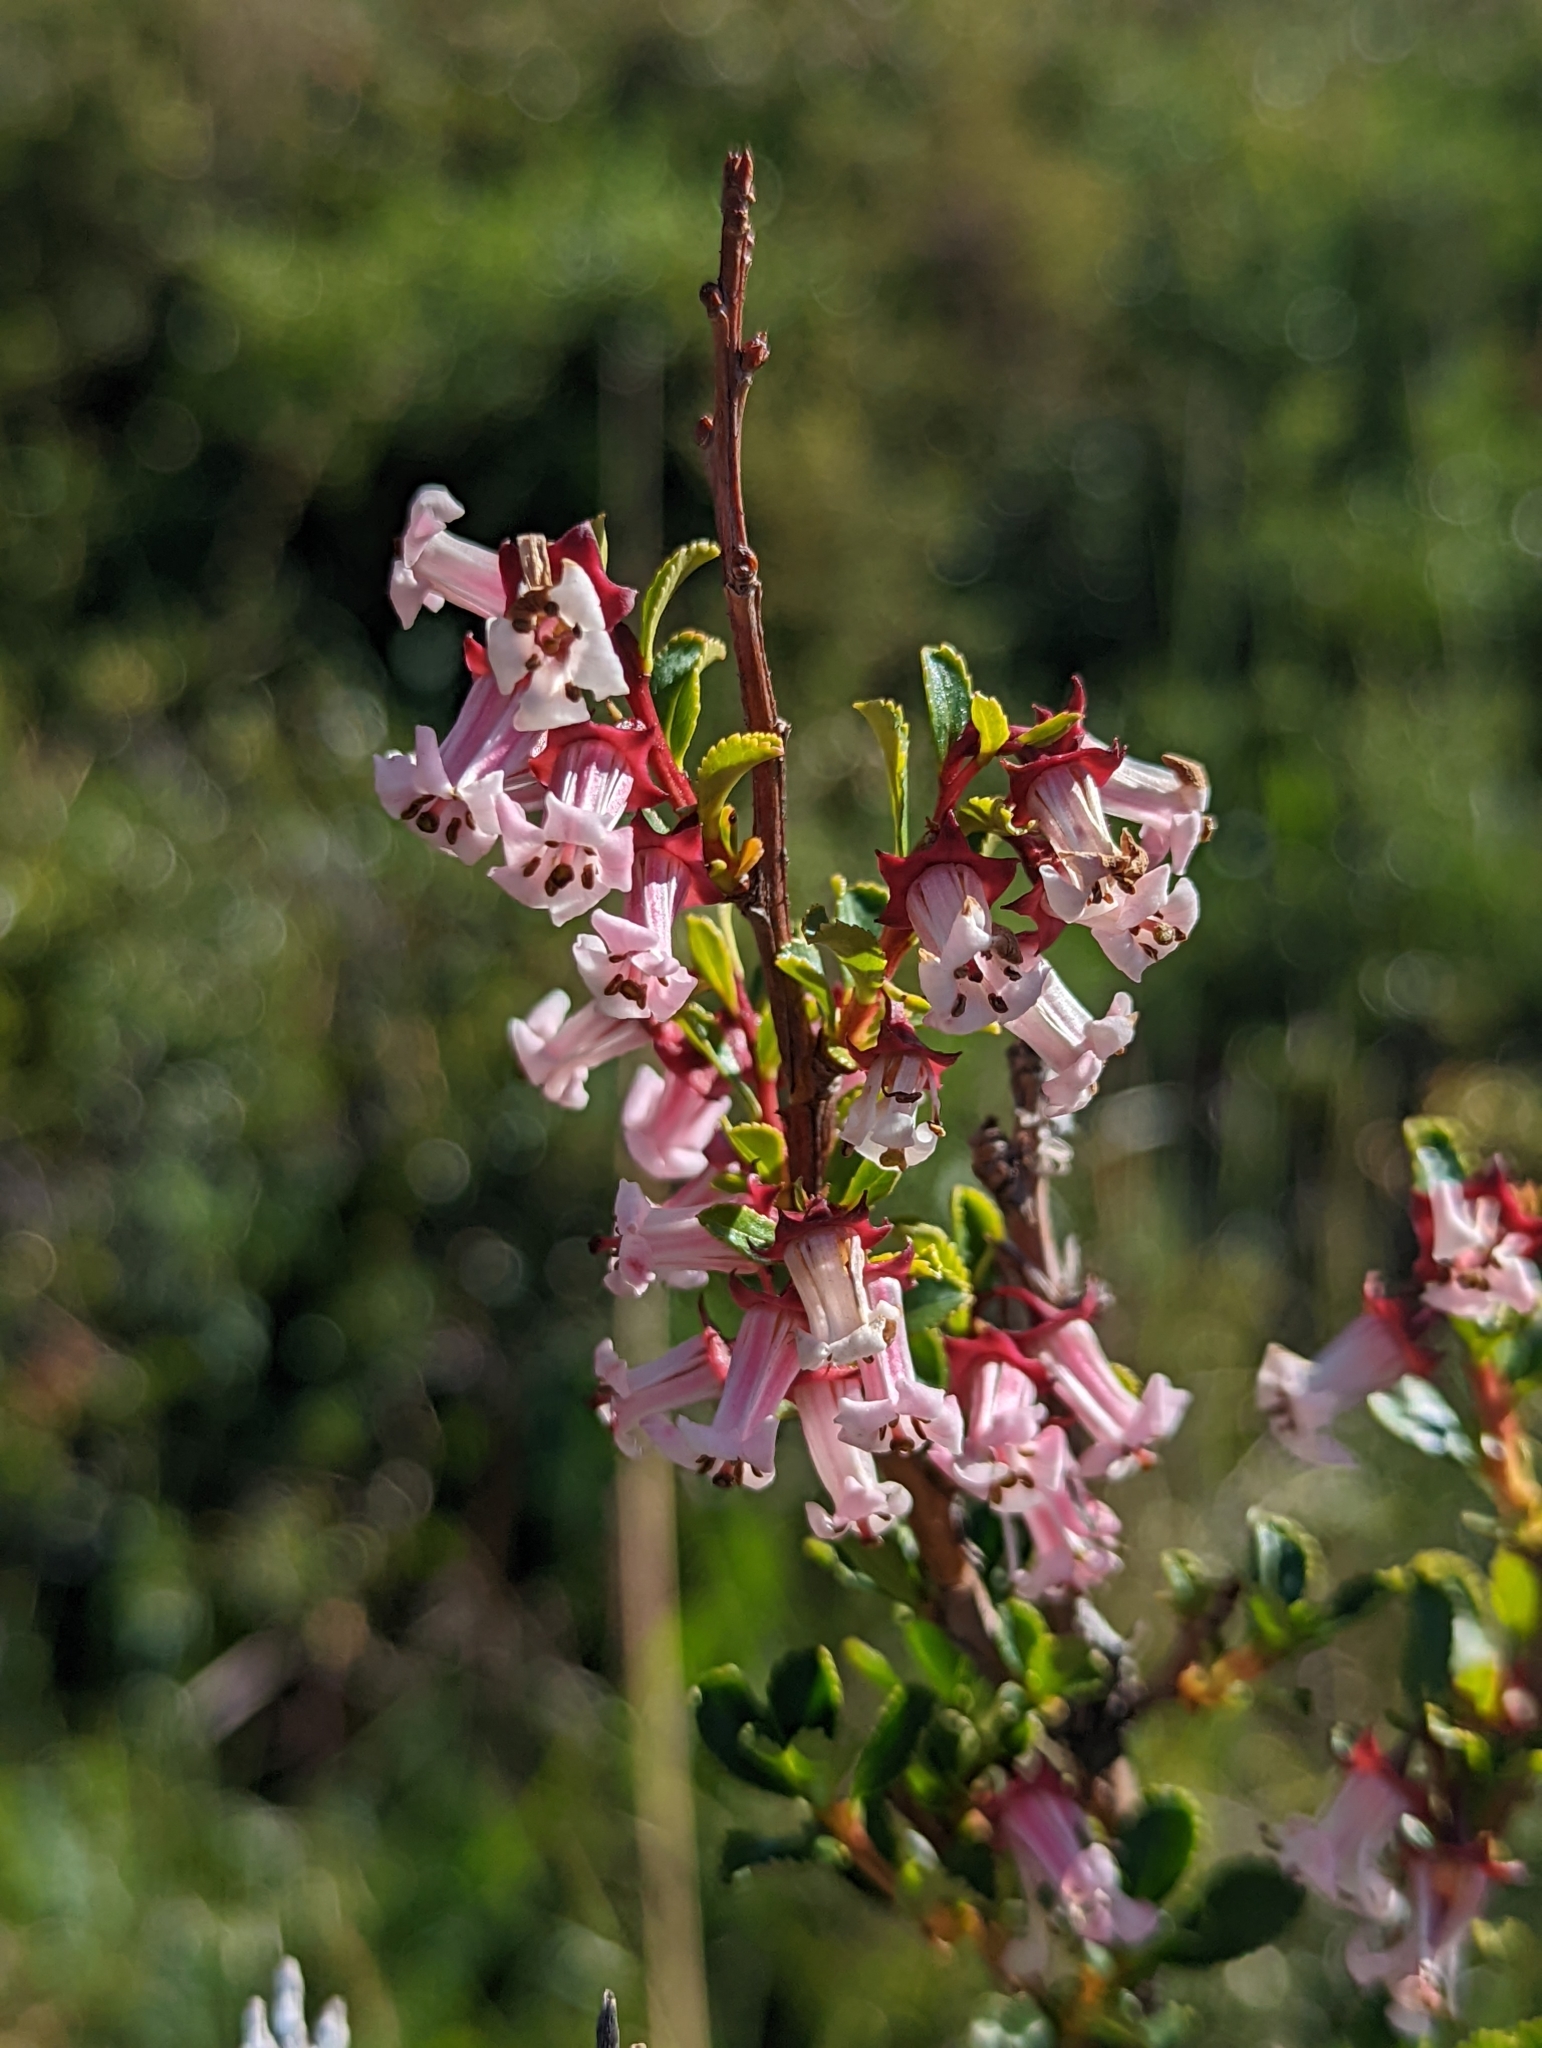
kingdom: Plantae
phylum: Tracheophyta
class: Magnoliopsida
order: Escalloniales
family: Escalloniaceae
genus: Escallonia
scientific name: Escallonia rubra
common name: Redclaws
